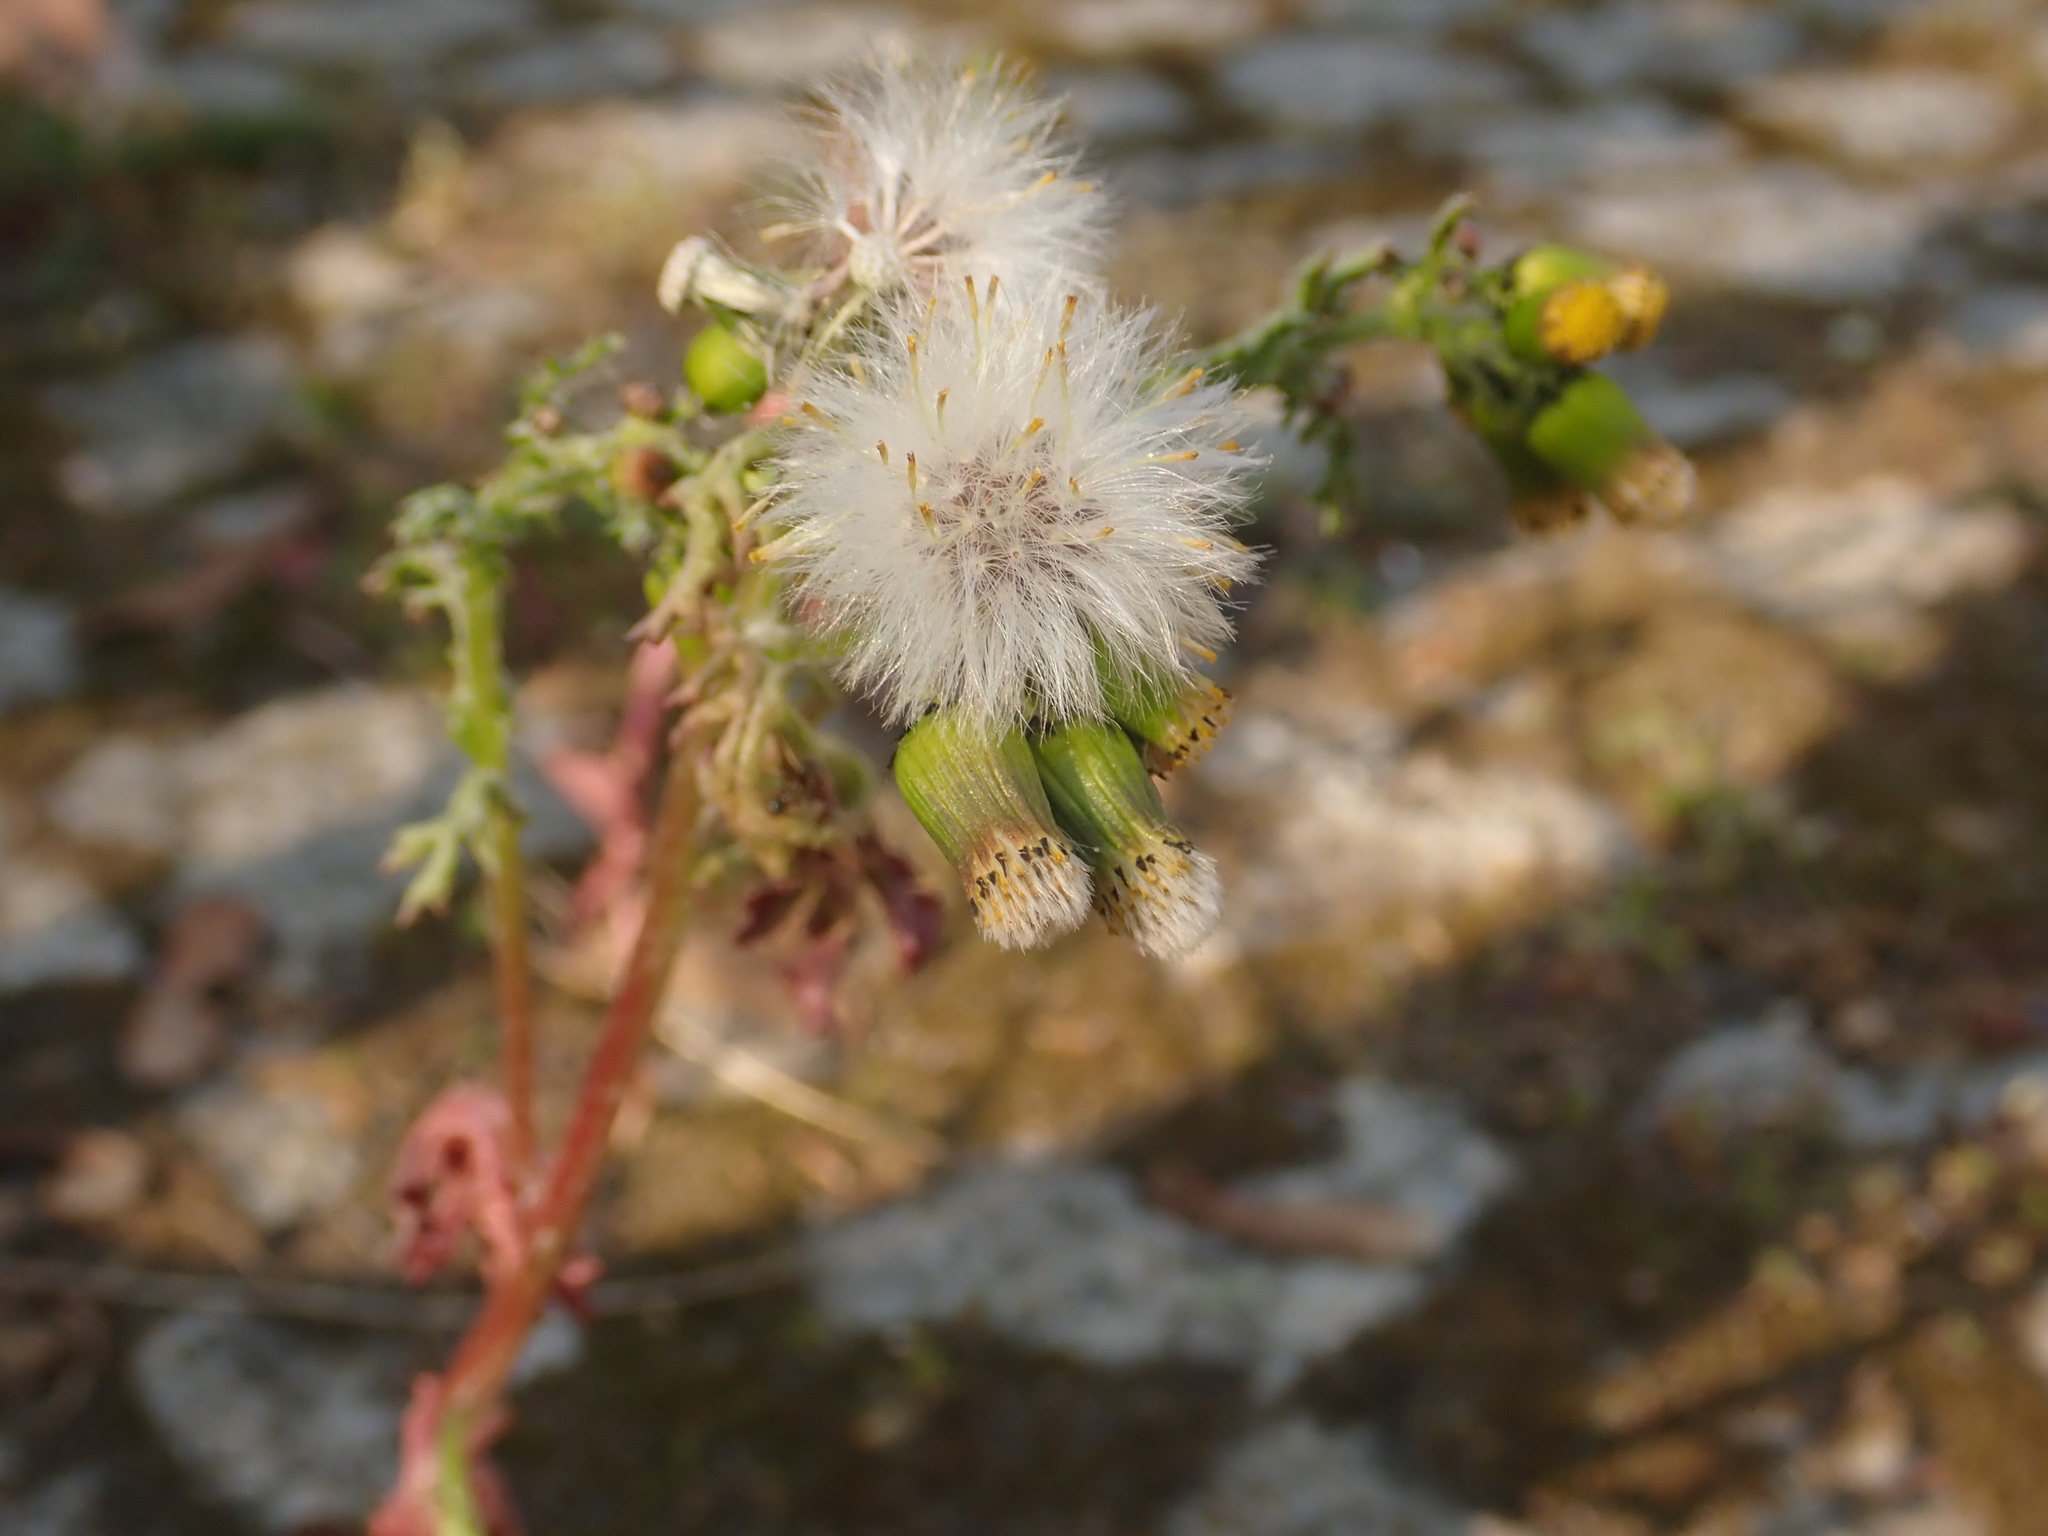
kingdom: Plantae
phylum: Tracheophyta
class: Magnoliopsida
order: Asterales
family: Asteraceae
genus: Senecio
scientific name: Senecio vulgaris
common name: Old-man-in-the-spring
